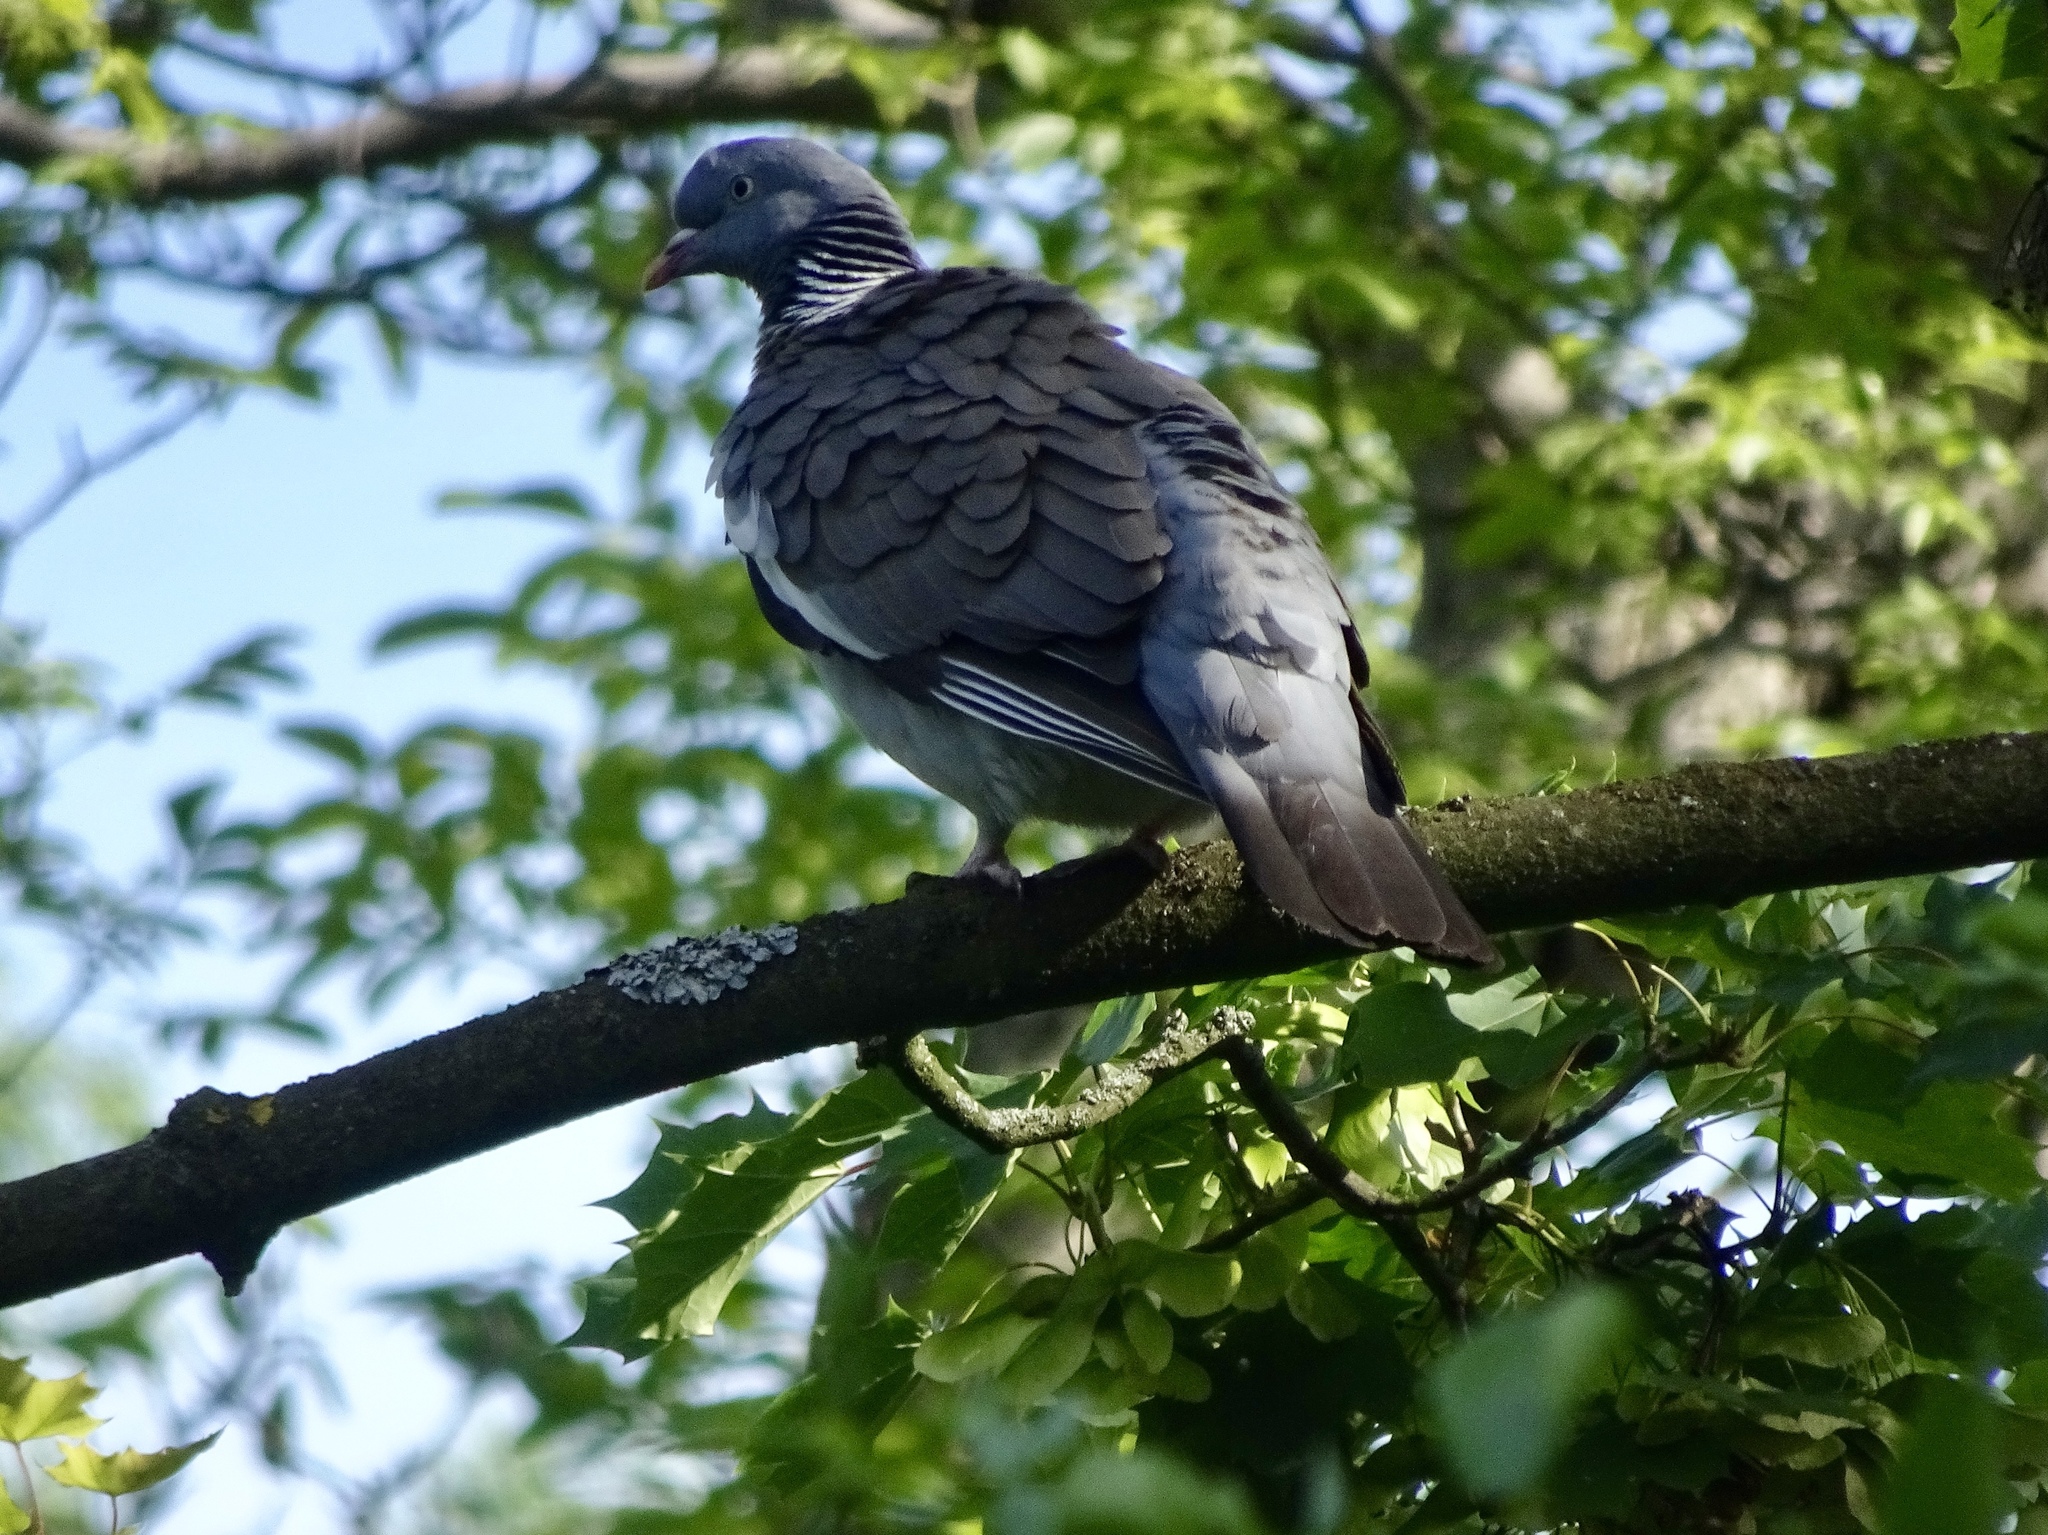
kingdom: Animalia
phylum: Chordata
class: Aves
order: Columbiformes
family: Columbidae
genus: Columba
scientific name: Columba palumbus
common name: Common wood pigeon
